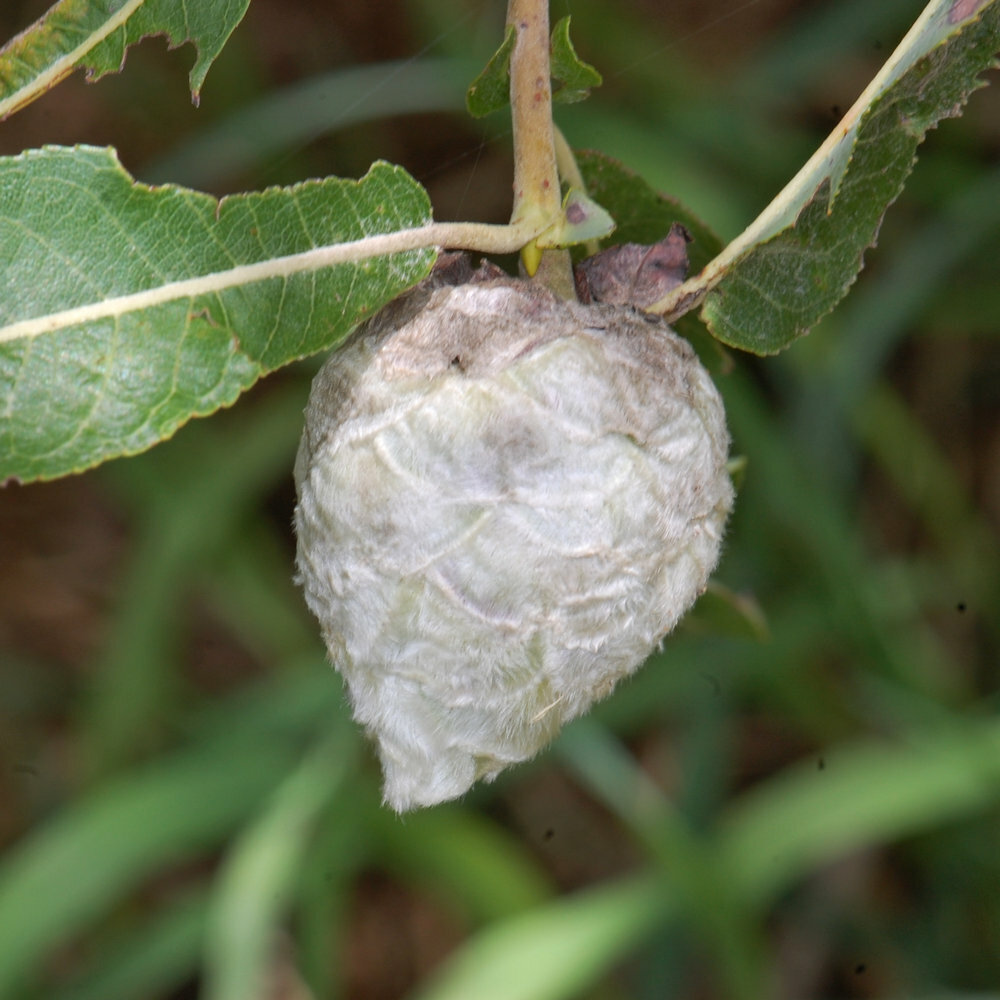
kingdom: Animalia
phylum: Arthropoda
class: Insecta
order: Diptera
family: Cecidomyiidae
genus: Rabdophaga
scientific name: Rabdophaga strobiloides
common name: Willow pinecone gall midge
